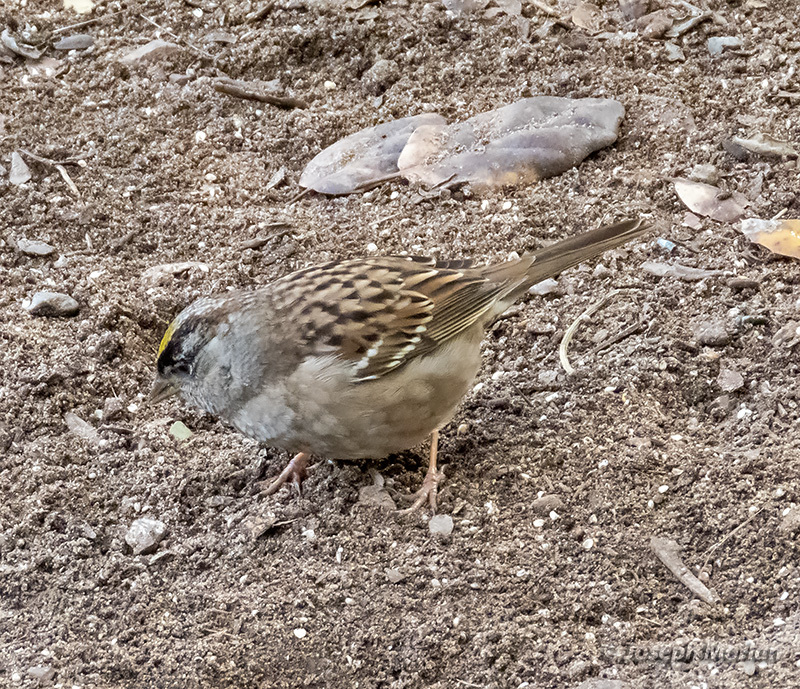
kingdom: Animalia
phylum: Chordata
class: Aves
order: Passeriformes
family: Passerellidae
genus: Zonotrichia
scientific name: Zonotrichia atricapilla
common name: Golden-crowned sparrow
